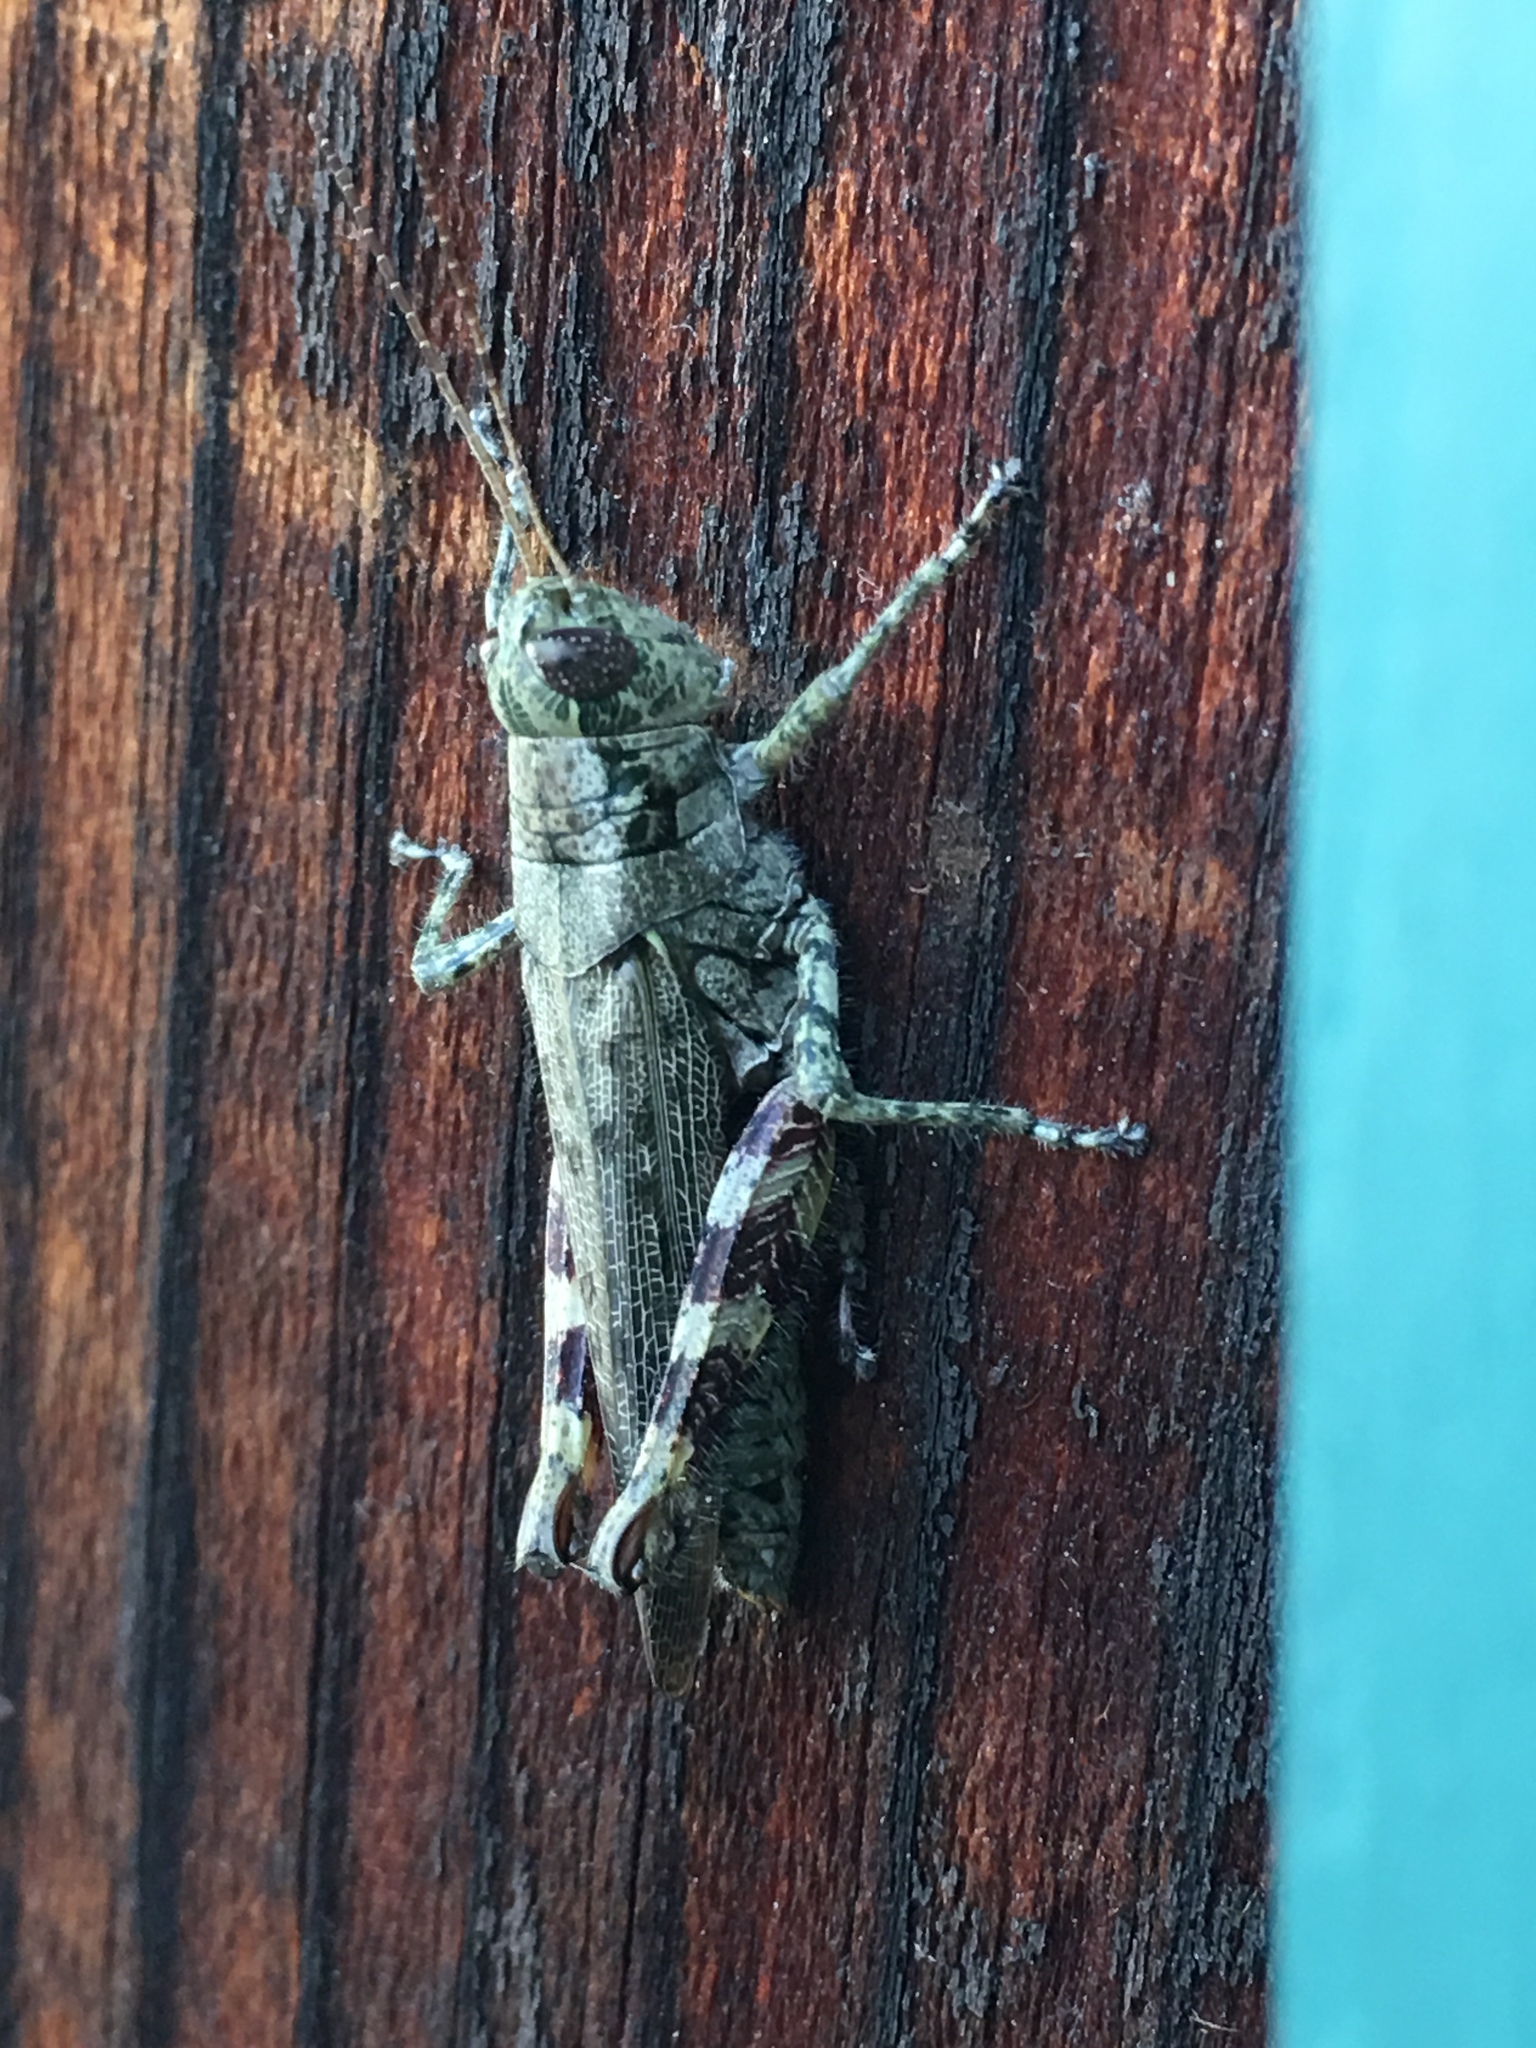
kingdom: Animalia
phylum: Arthropoda
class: Insecta
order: Orthoptera
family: Acrididae
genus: Melanoplus
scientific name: Melanoplus punctulatus
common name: Pine-tree spur-throat grasshopper
